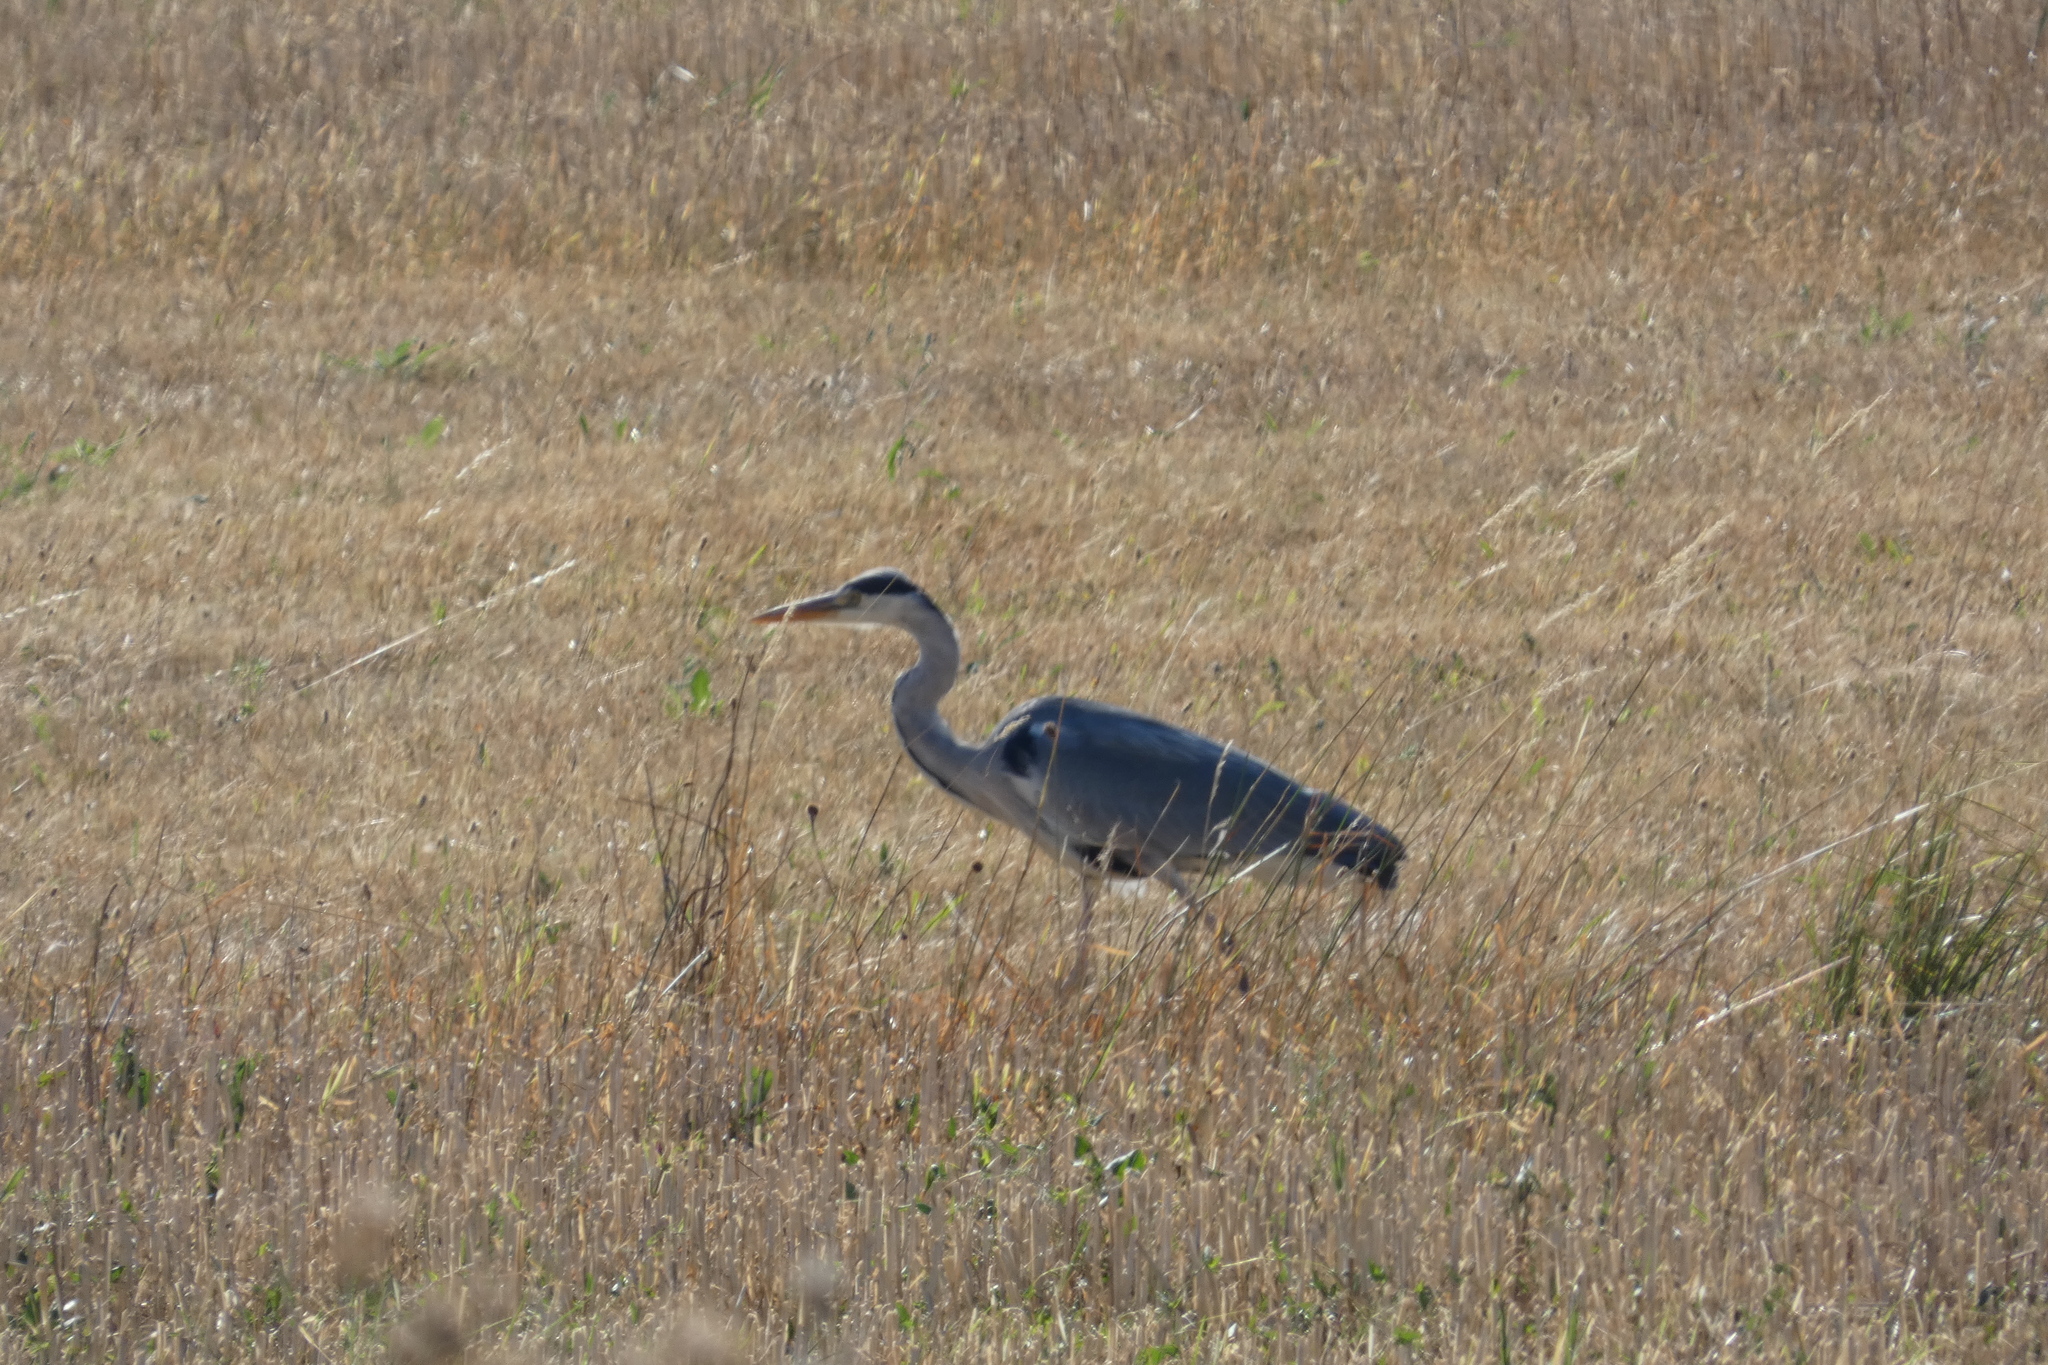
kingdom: Animalia
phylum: Chordata
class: Aves
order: Pelecaniformes
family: Ardeidae
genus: Ardea
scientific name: Ardea cinerea
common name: Grey heron
